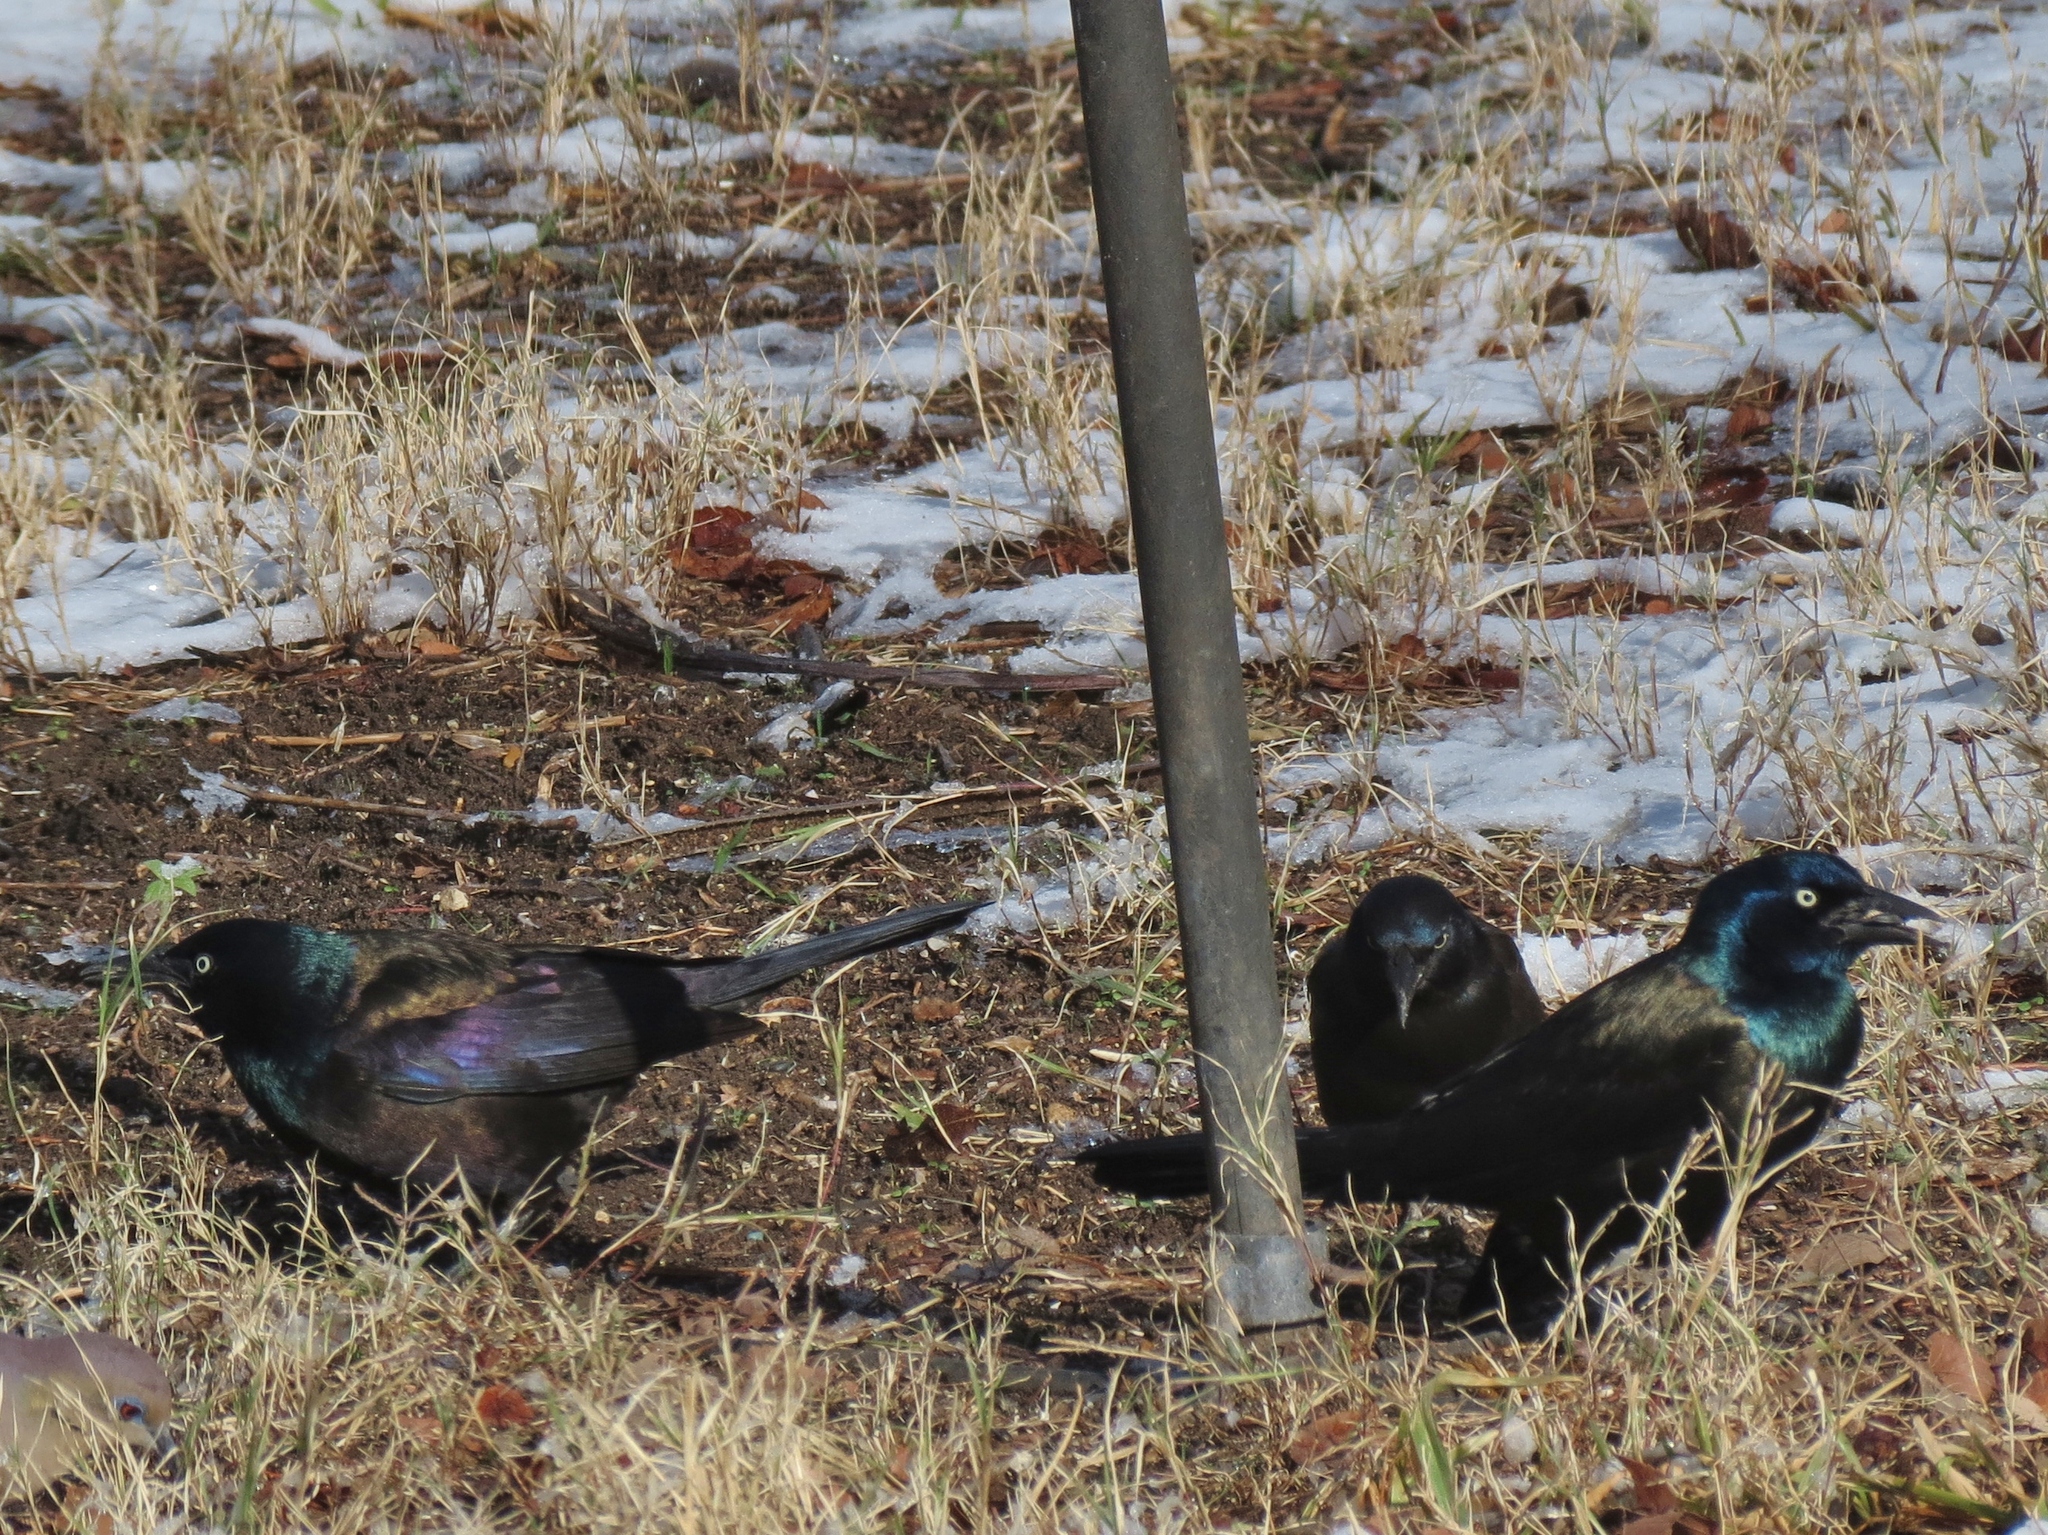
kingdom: Animalia
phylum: Chordata
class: Aves
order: Passeriformes
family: Icteridae
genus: Quiscalus
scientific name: Quiscalus quiscula
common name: Common grackle
